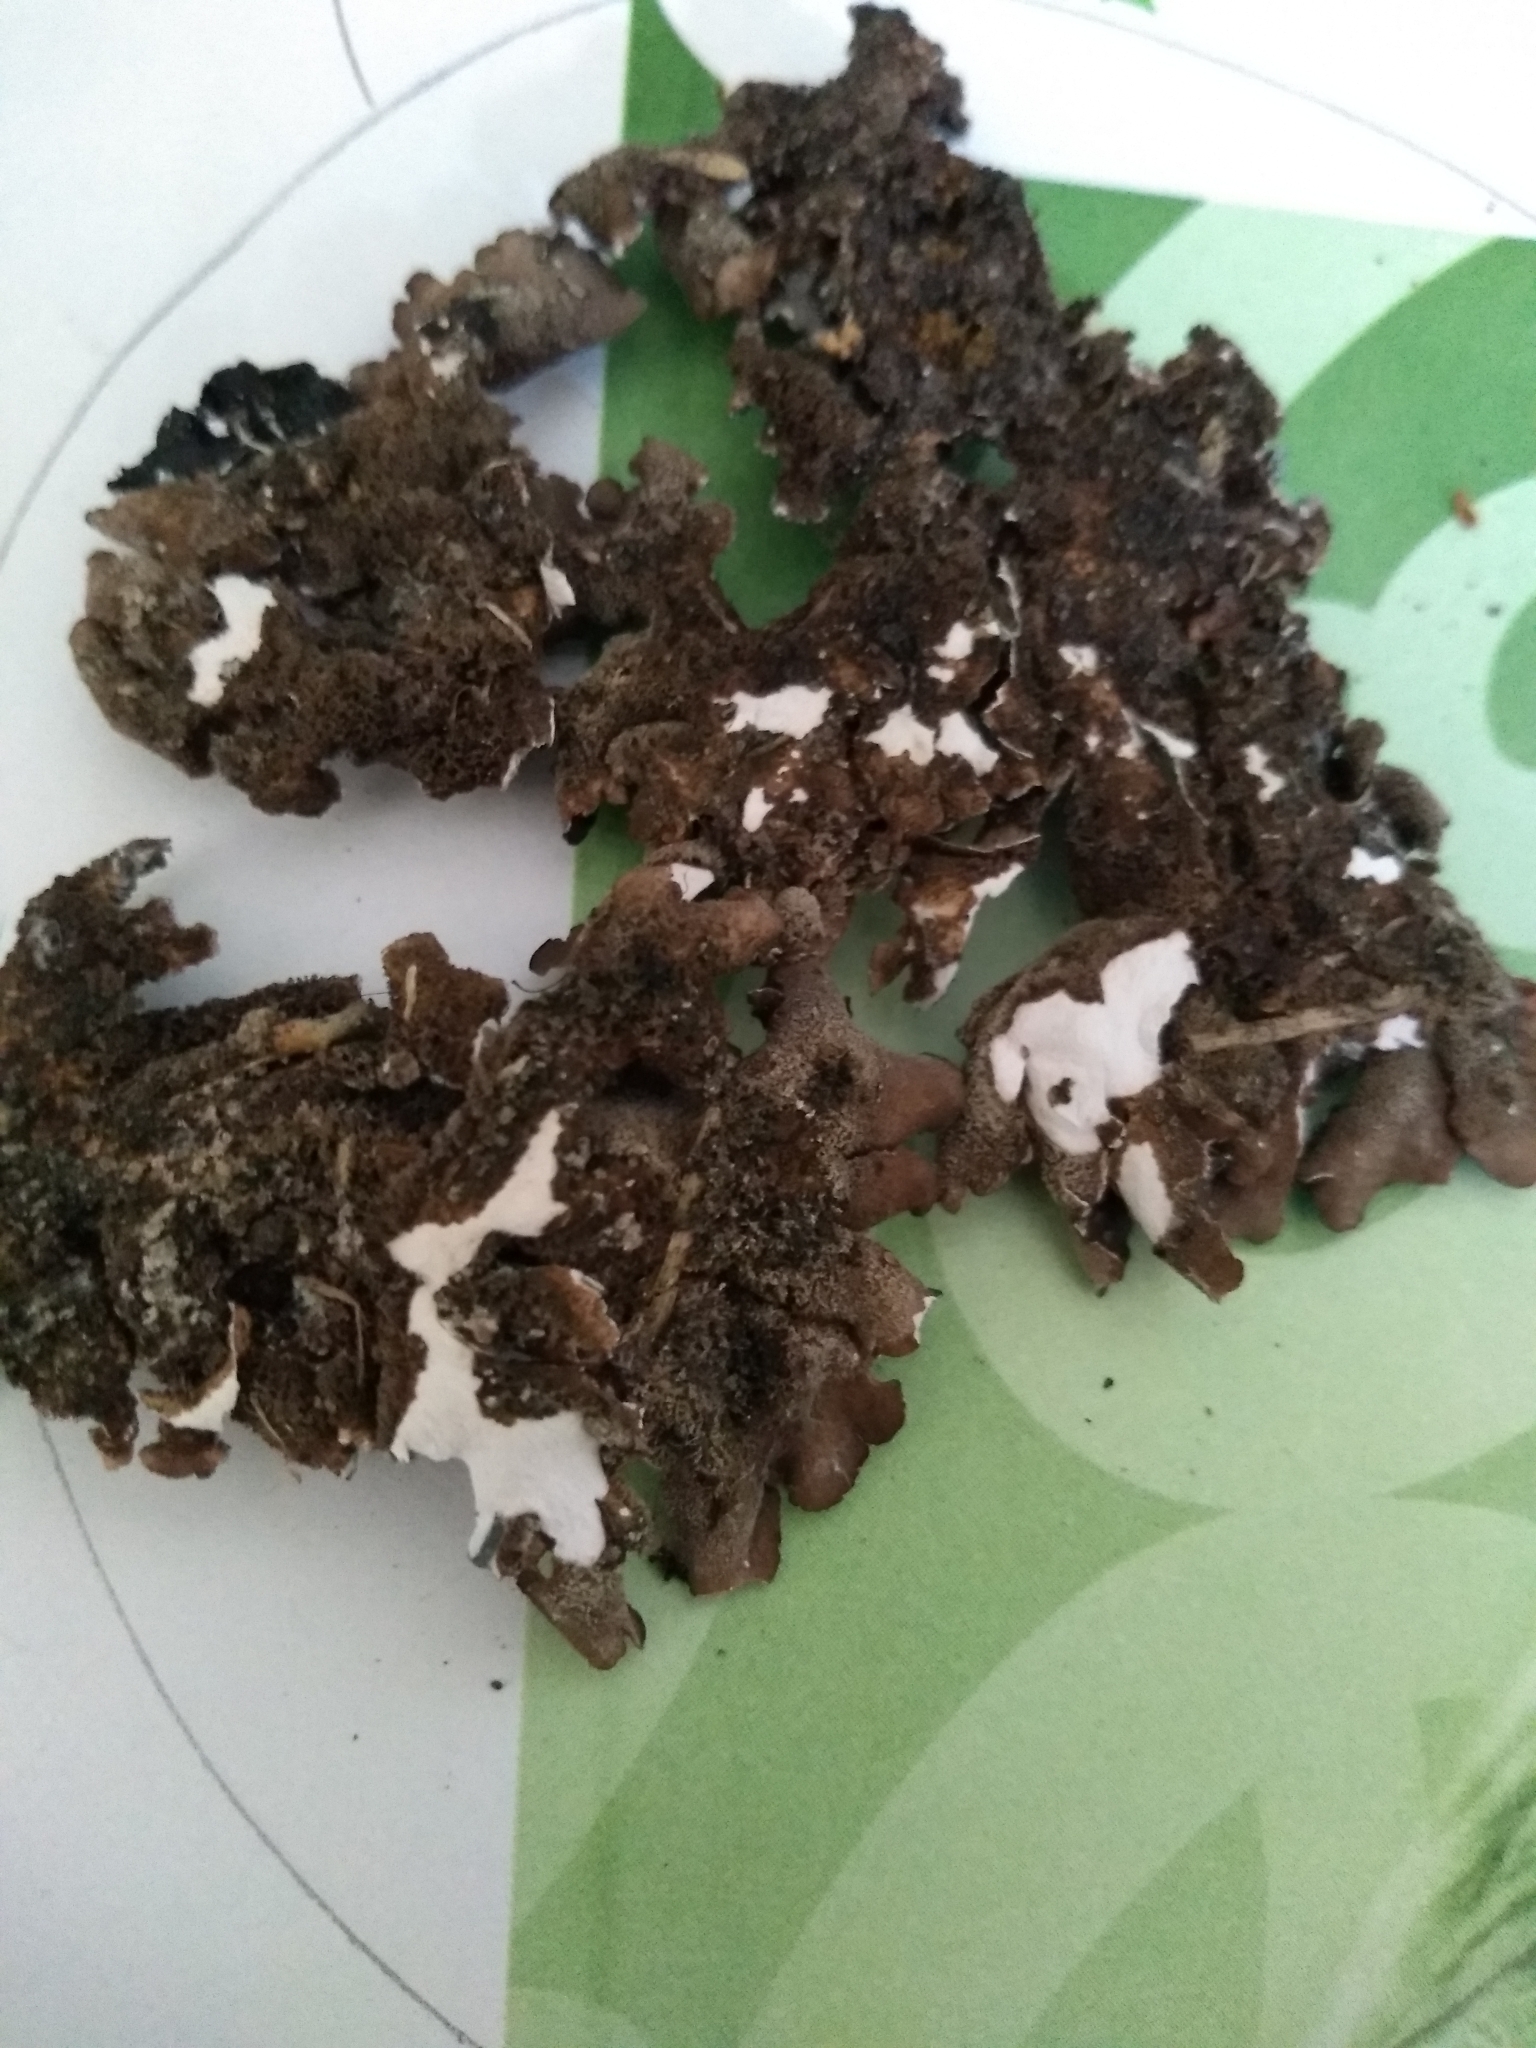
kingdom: Fungi
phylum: Ascomycota
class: Lecanoromycetes
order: Peltigerales
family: Lobariaceae
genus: Pseudocyphellaria
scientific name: Pseudocyphellaria intricata
